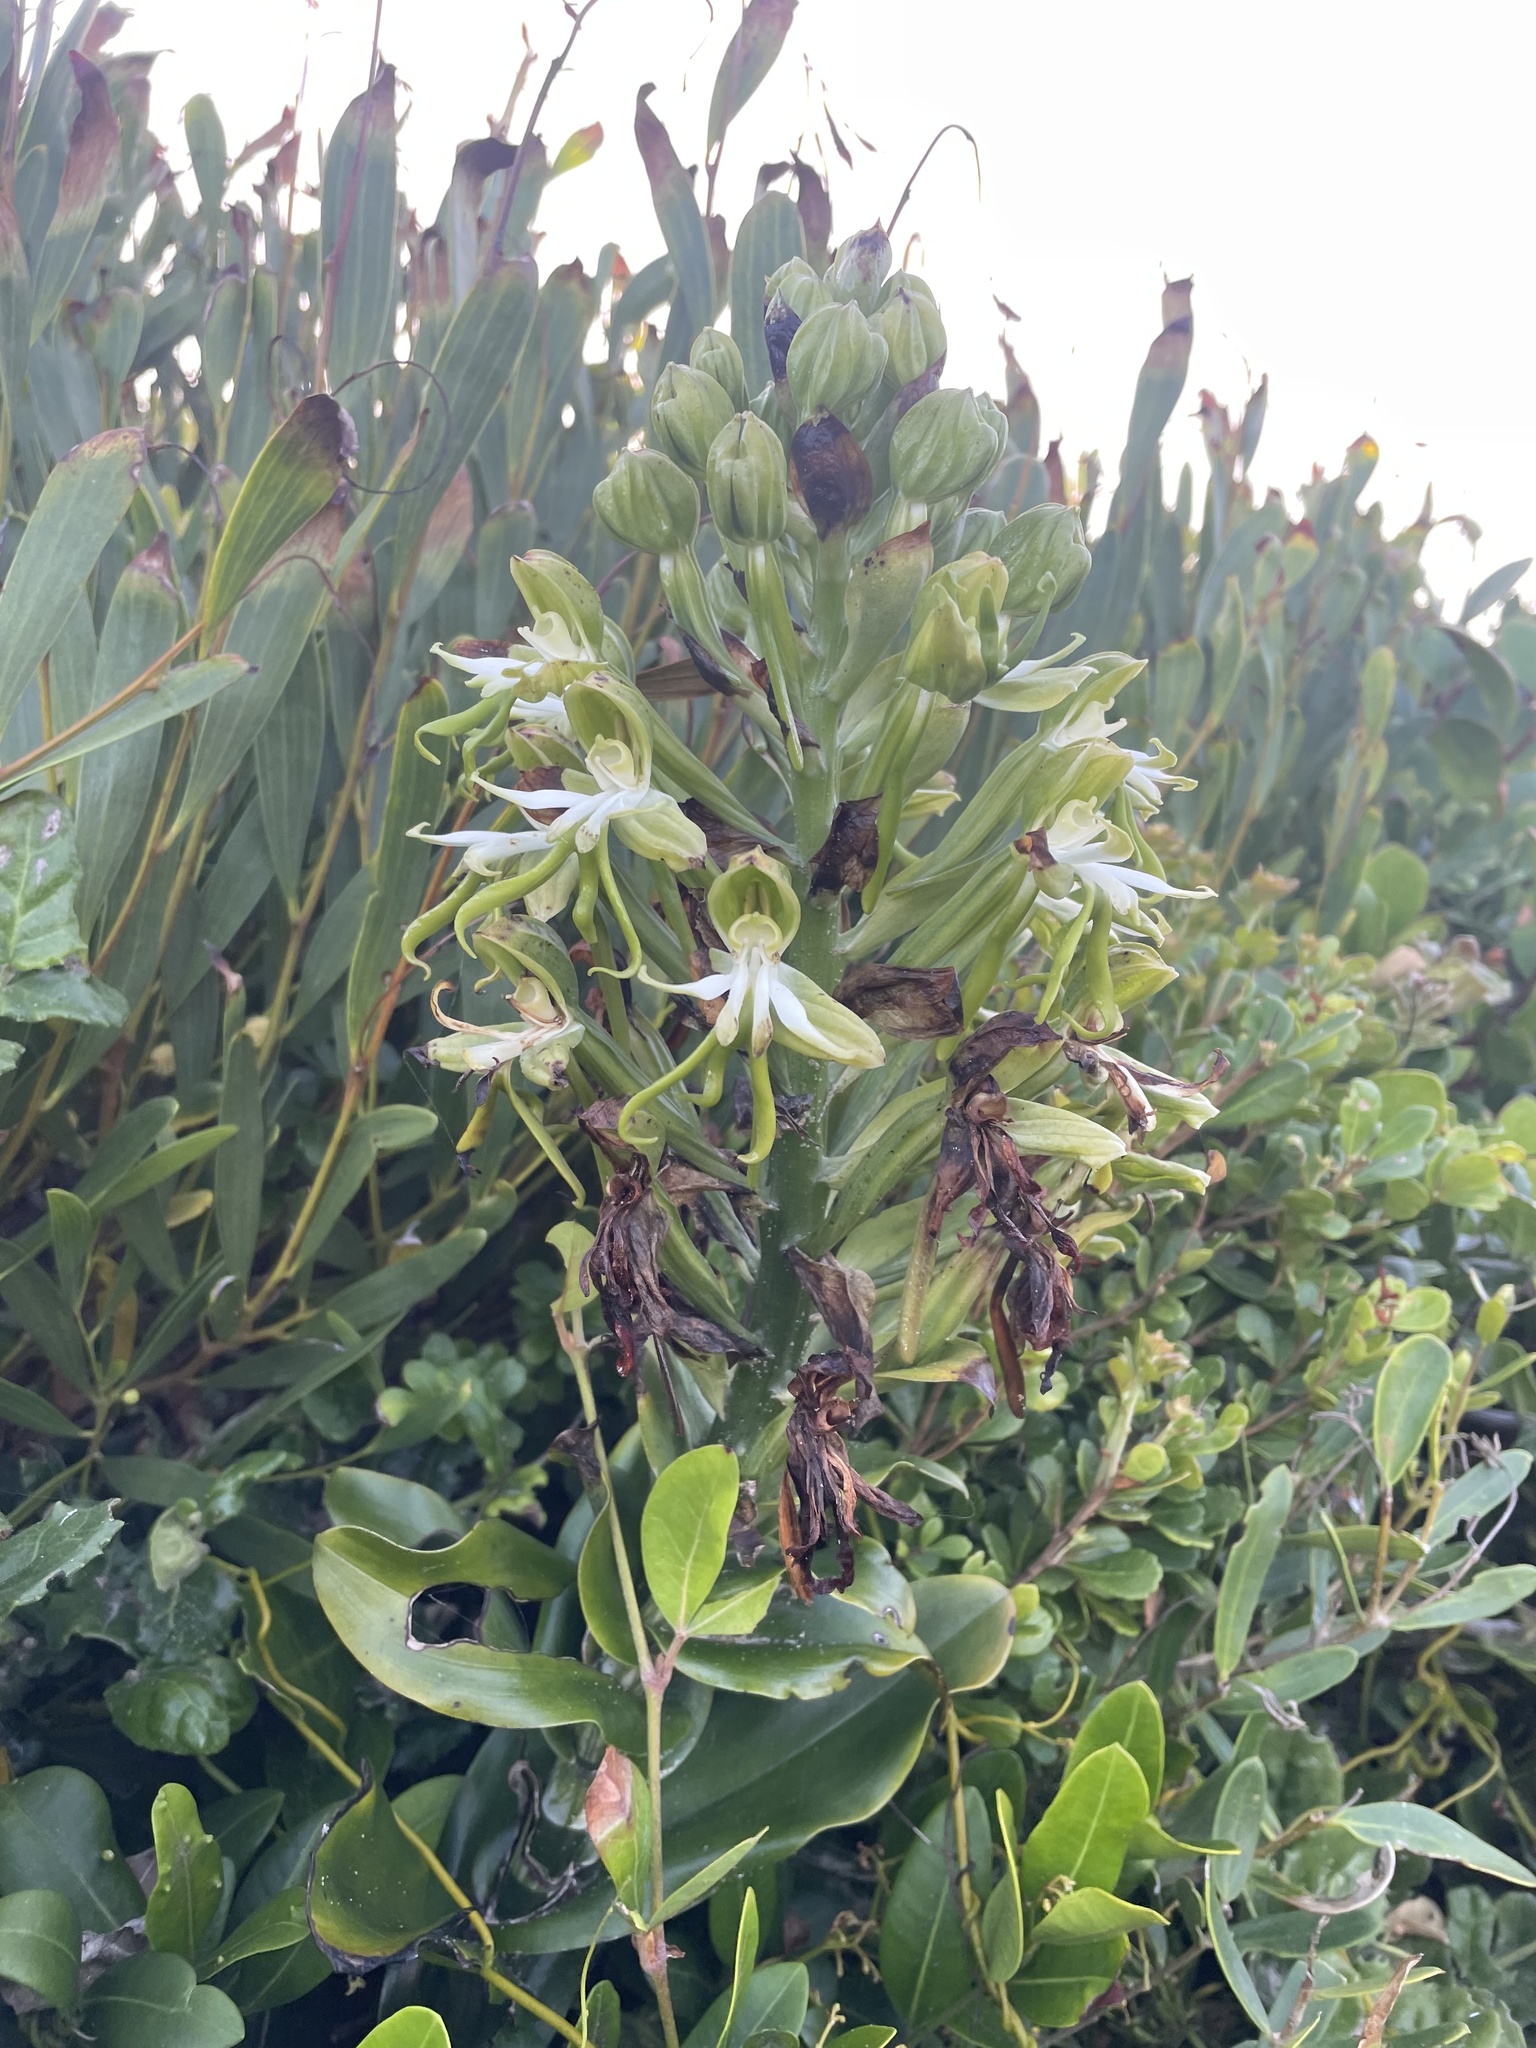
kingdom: Plantae
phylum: Tracheophyta
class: Liliopsida
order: Asparagales
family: Orchidaceae
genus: Bonatea
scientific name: Bonatea speciosa
